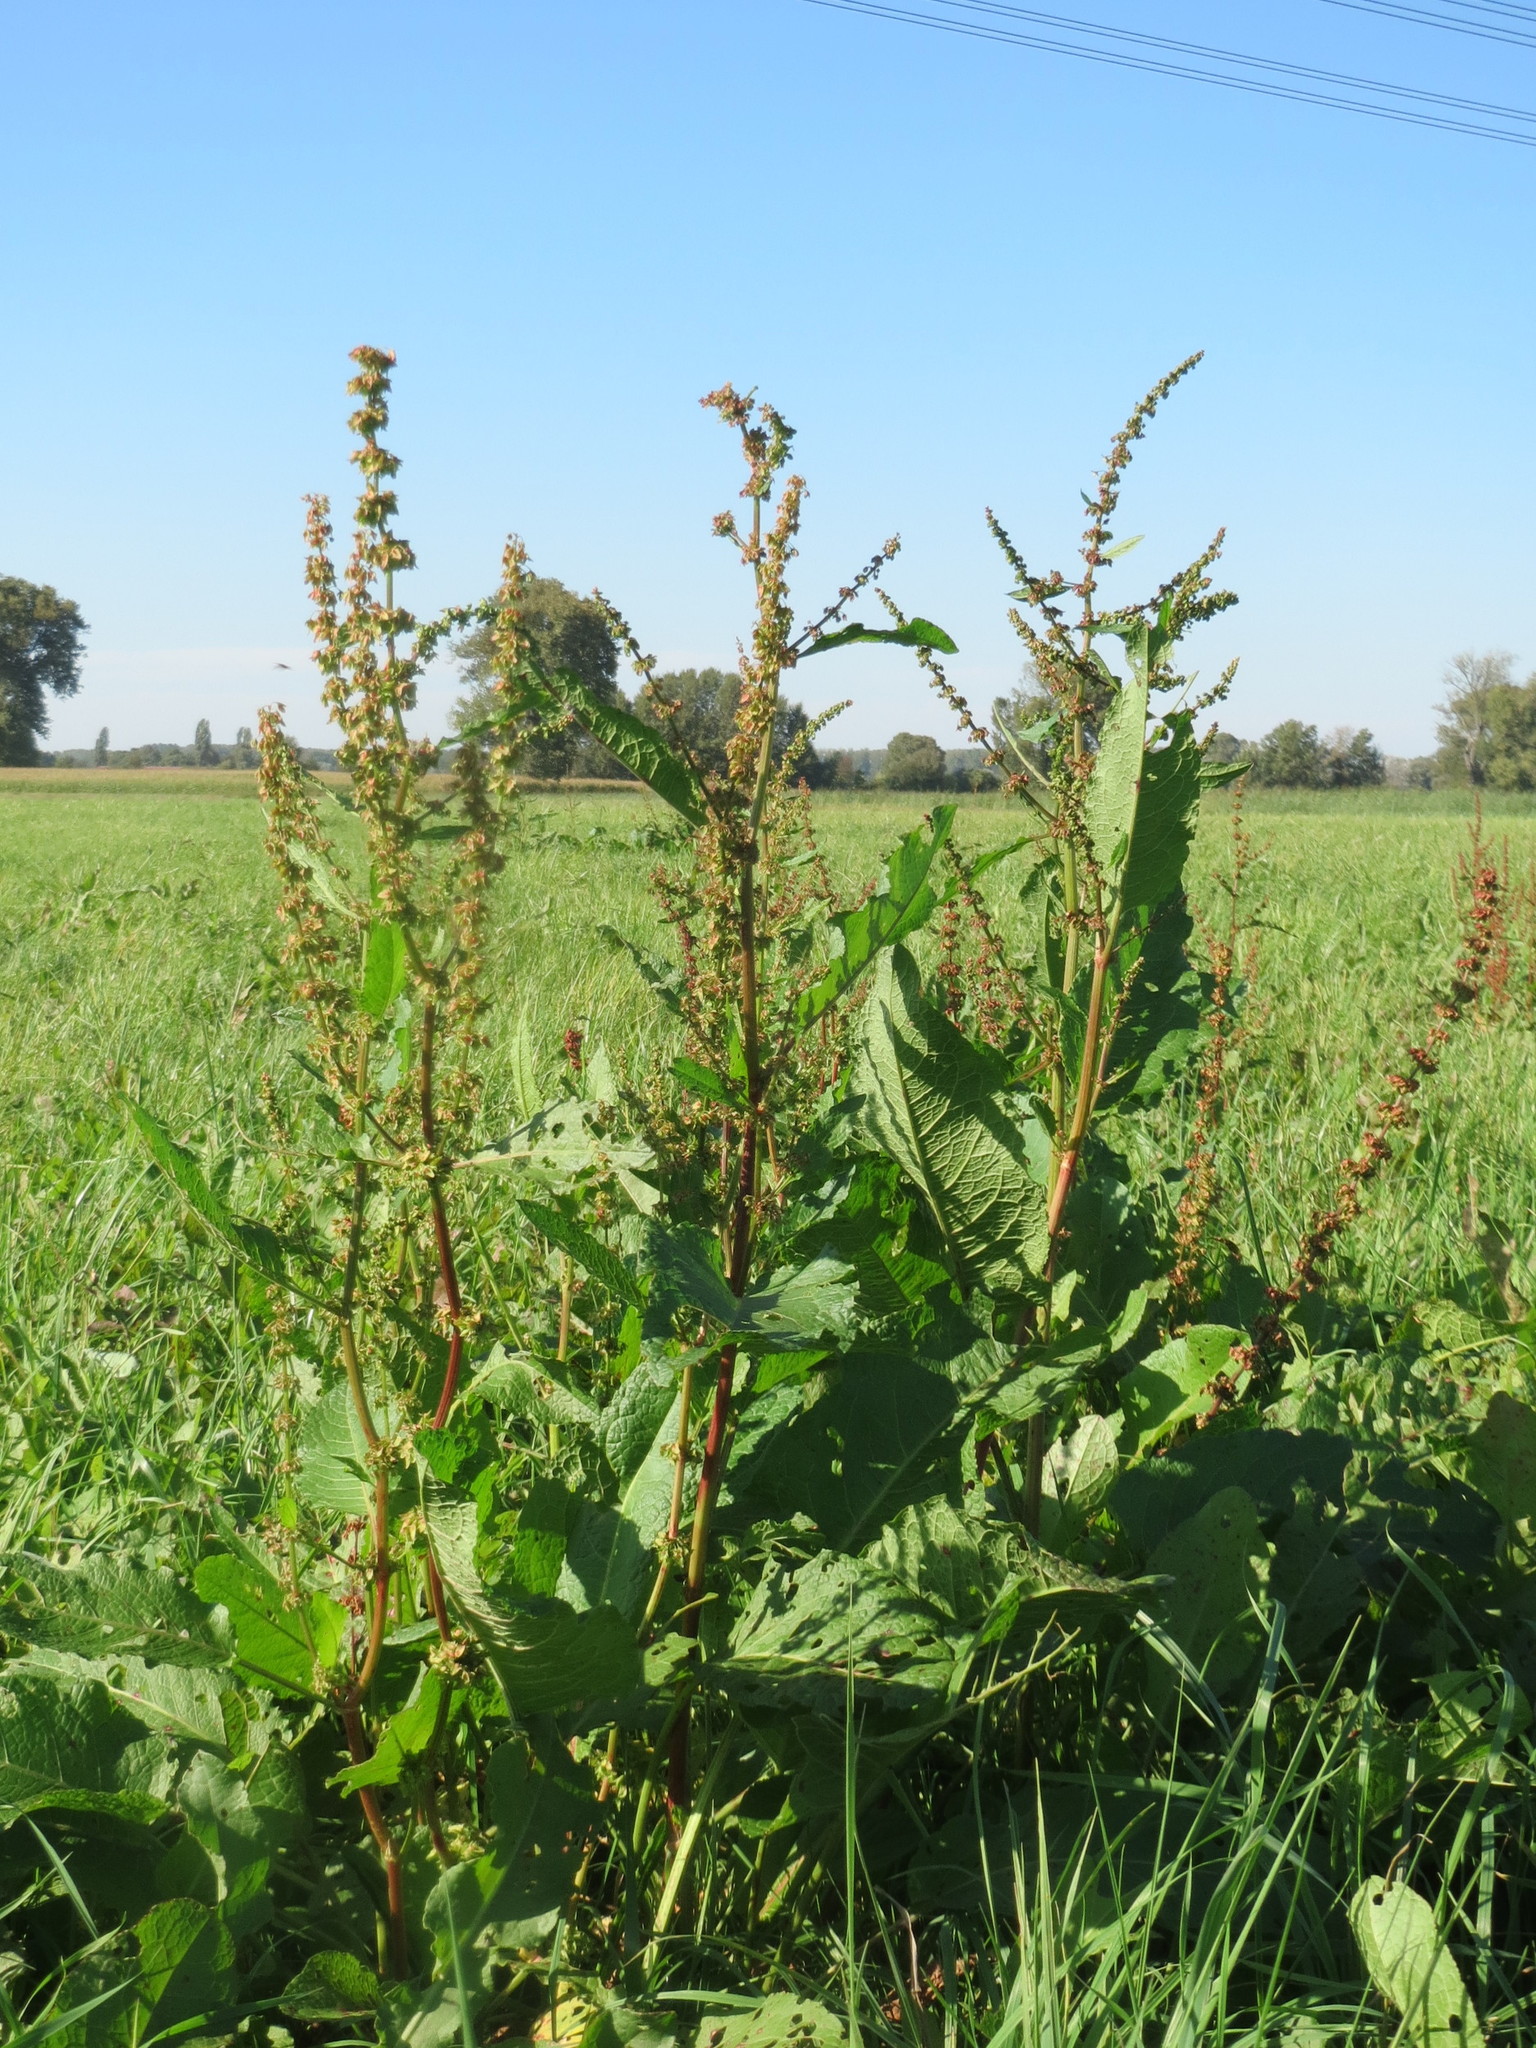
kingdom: Plantae
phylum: Tracheophyta
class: Magnoliopsida
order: Caryophyllales
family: Polygonaceae
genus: Rumex
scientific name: Rumex obtusifolius
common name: Bitter dock
